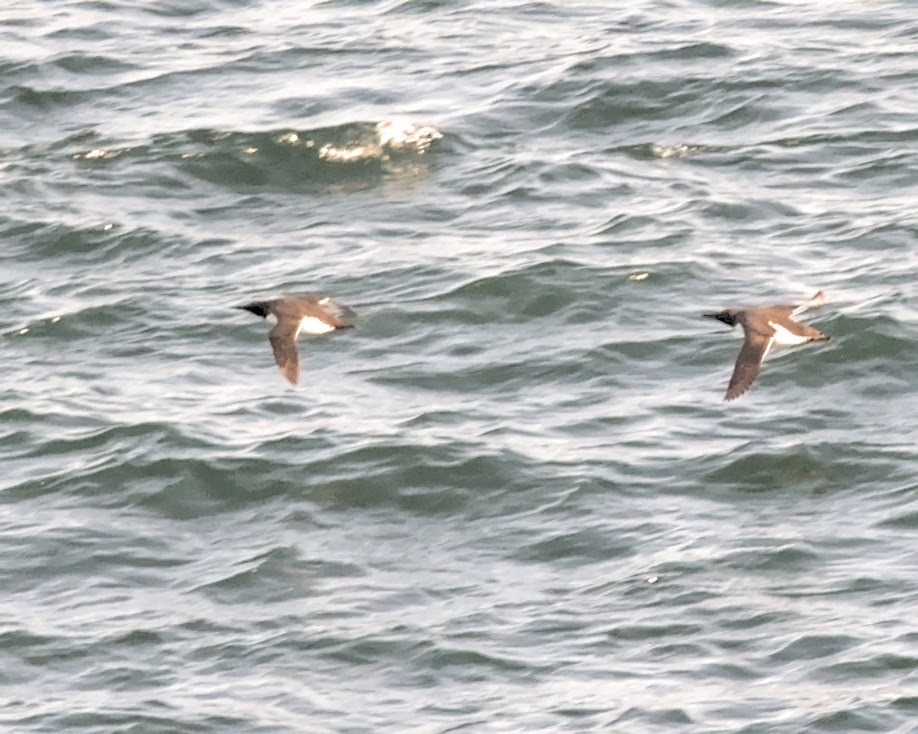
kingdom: Animalia
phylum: Chordata
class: Aves
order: Charadriiformes
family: Alcidae
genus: Uria
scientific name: Uria aalge
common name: Common murre
